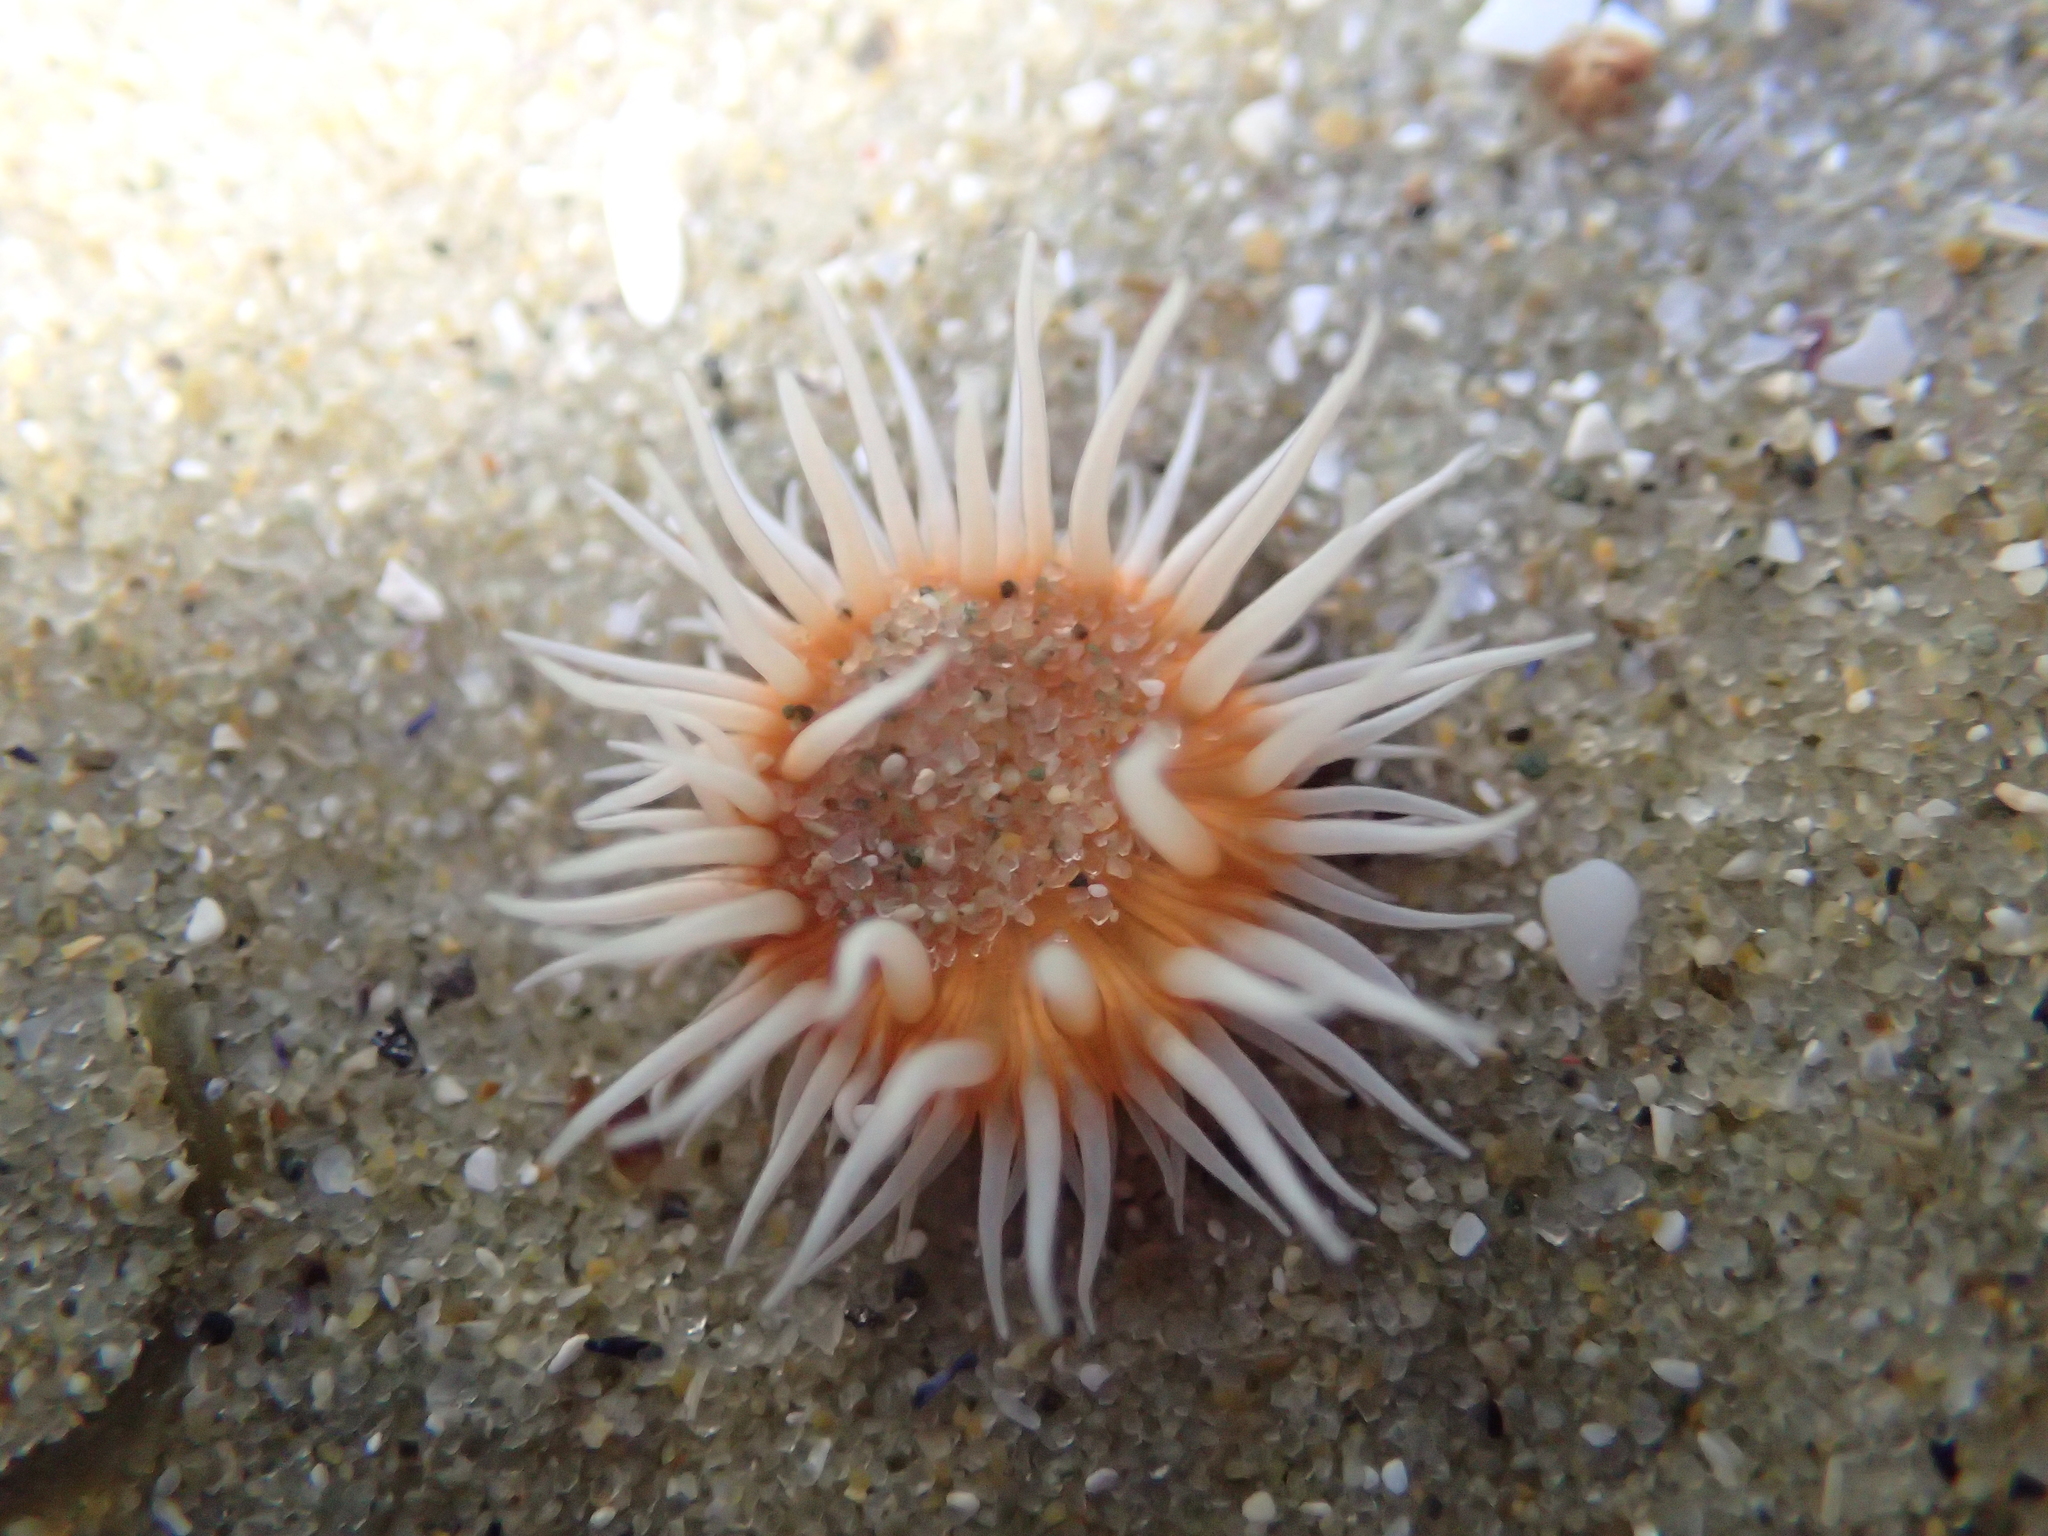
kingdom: Animalia
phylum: Cnidaria
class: Anthozoa
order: Actiniaria
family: Sagartiidae
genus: Anthothoe
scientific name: Anthothoe albocincta
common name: Orange striped anemone
